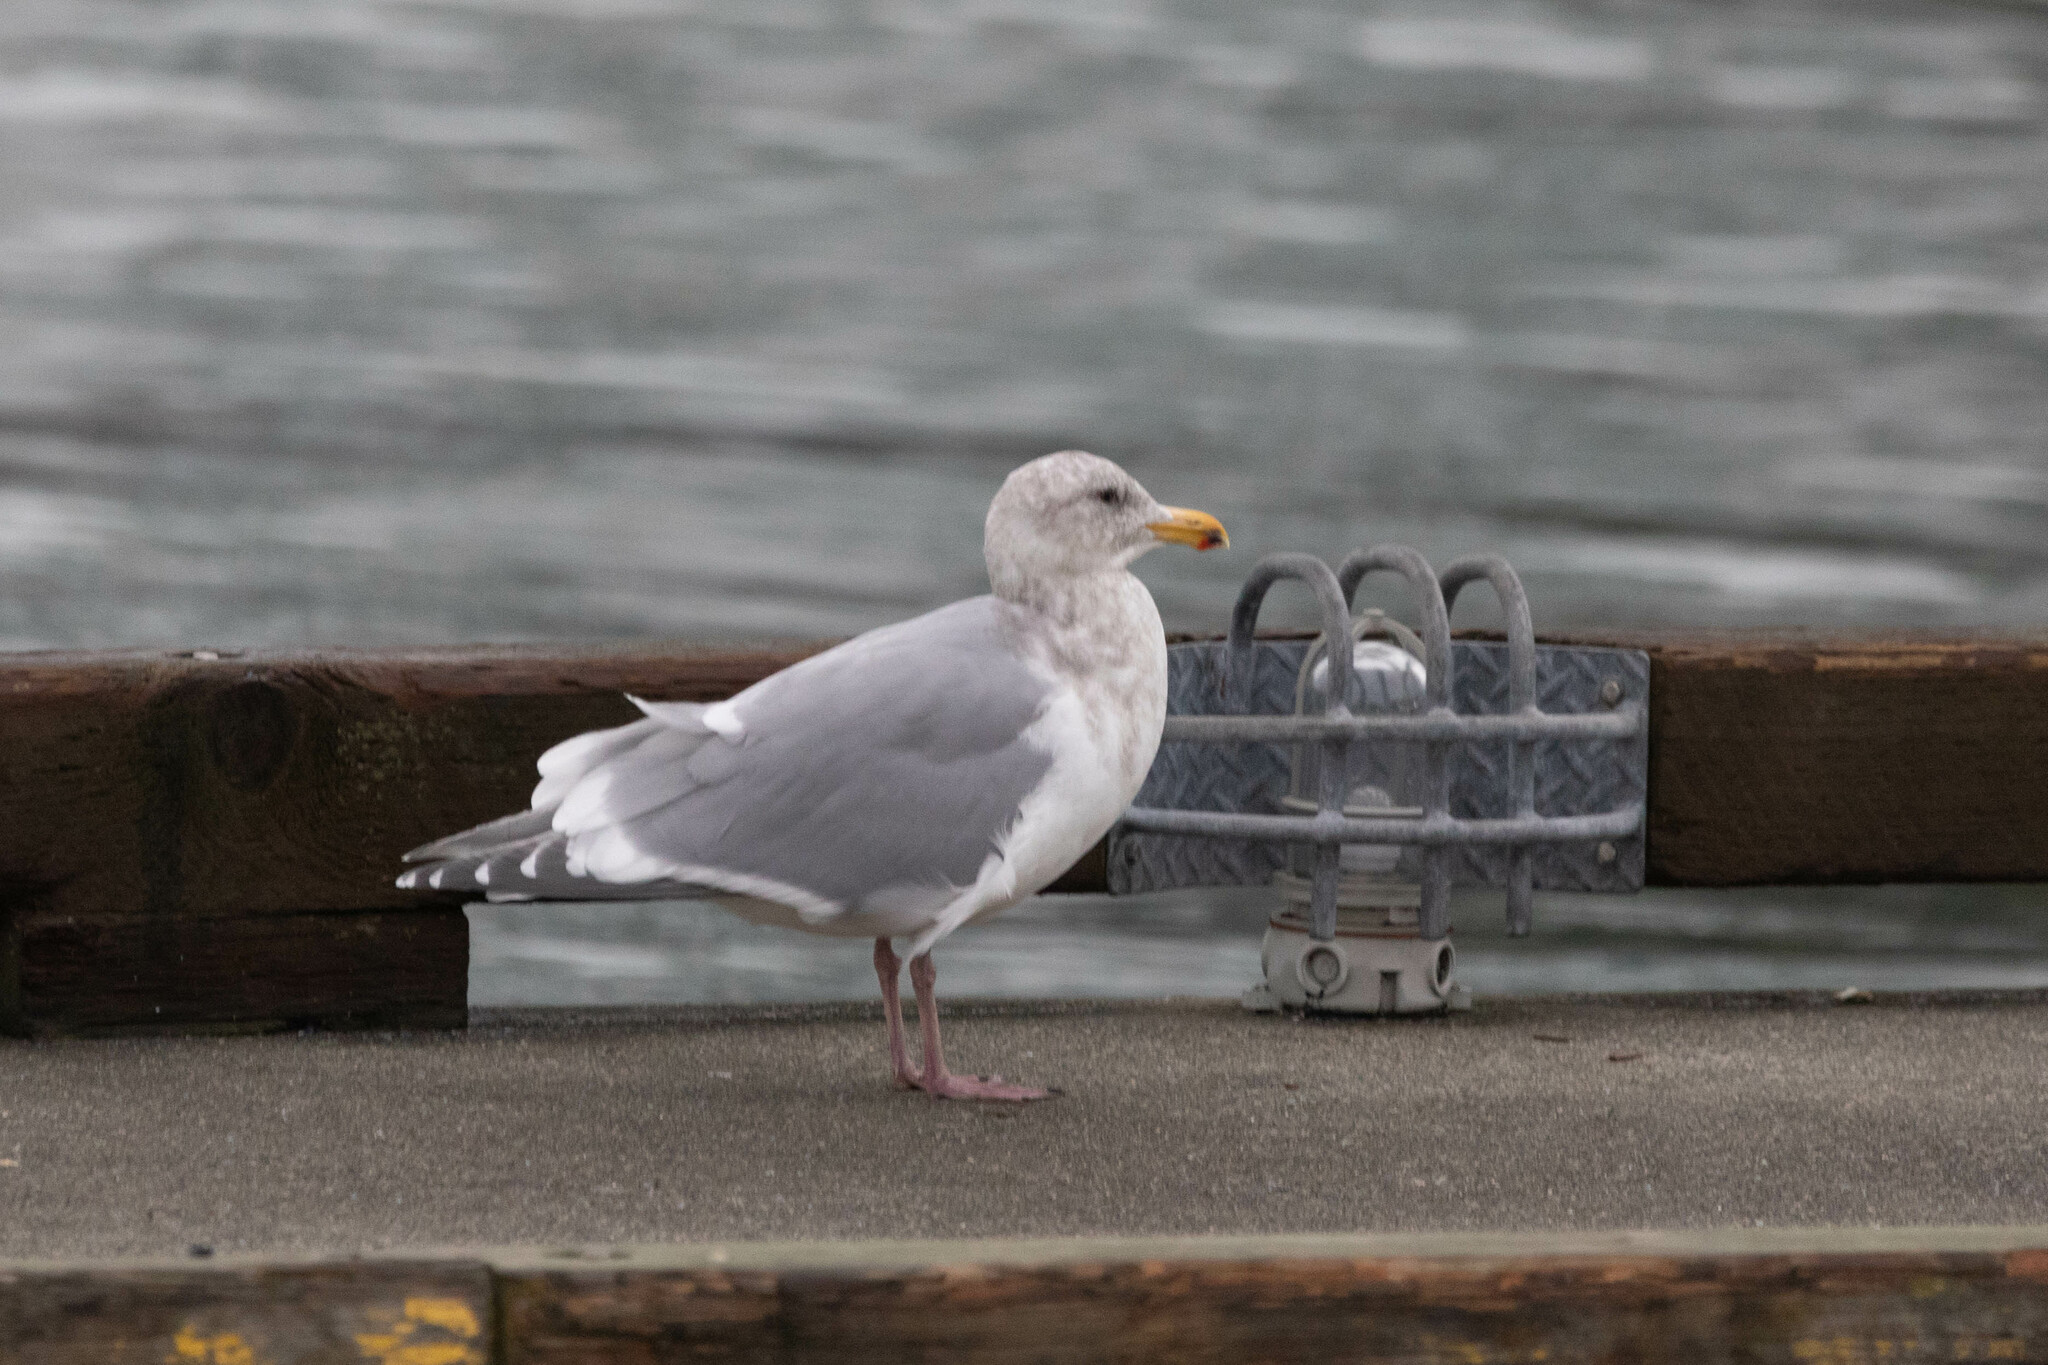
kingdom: Animalia
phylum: Chordata
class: Aves
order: Charadriiformes
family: Laridae
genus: Larus
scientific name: Larus
